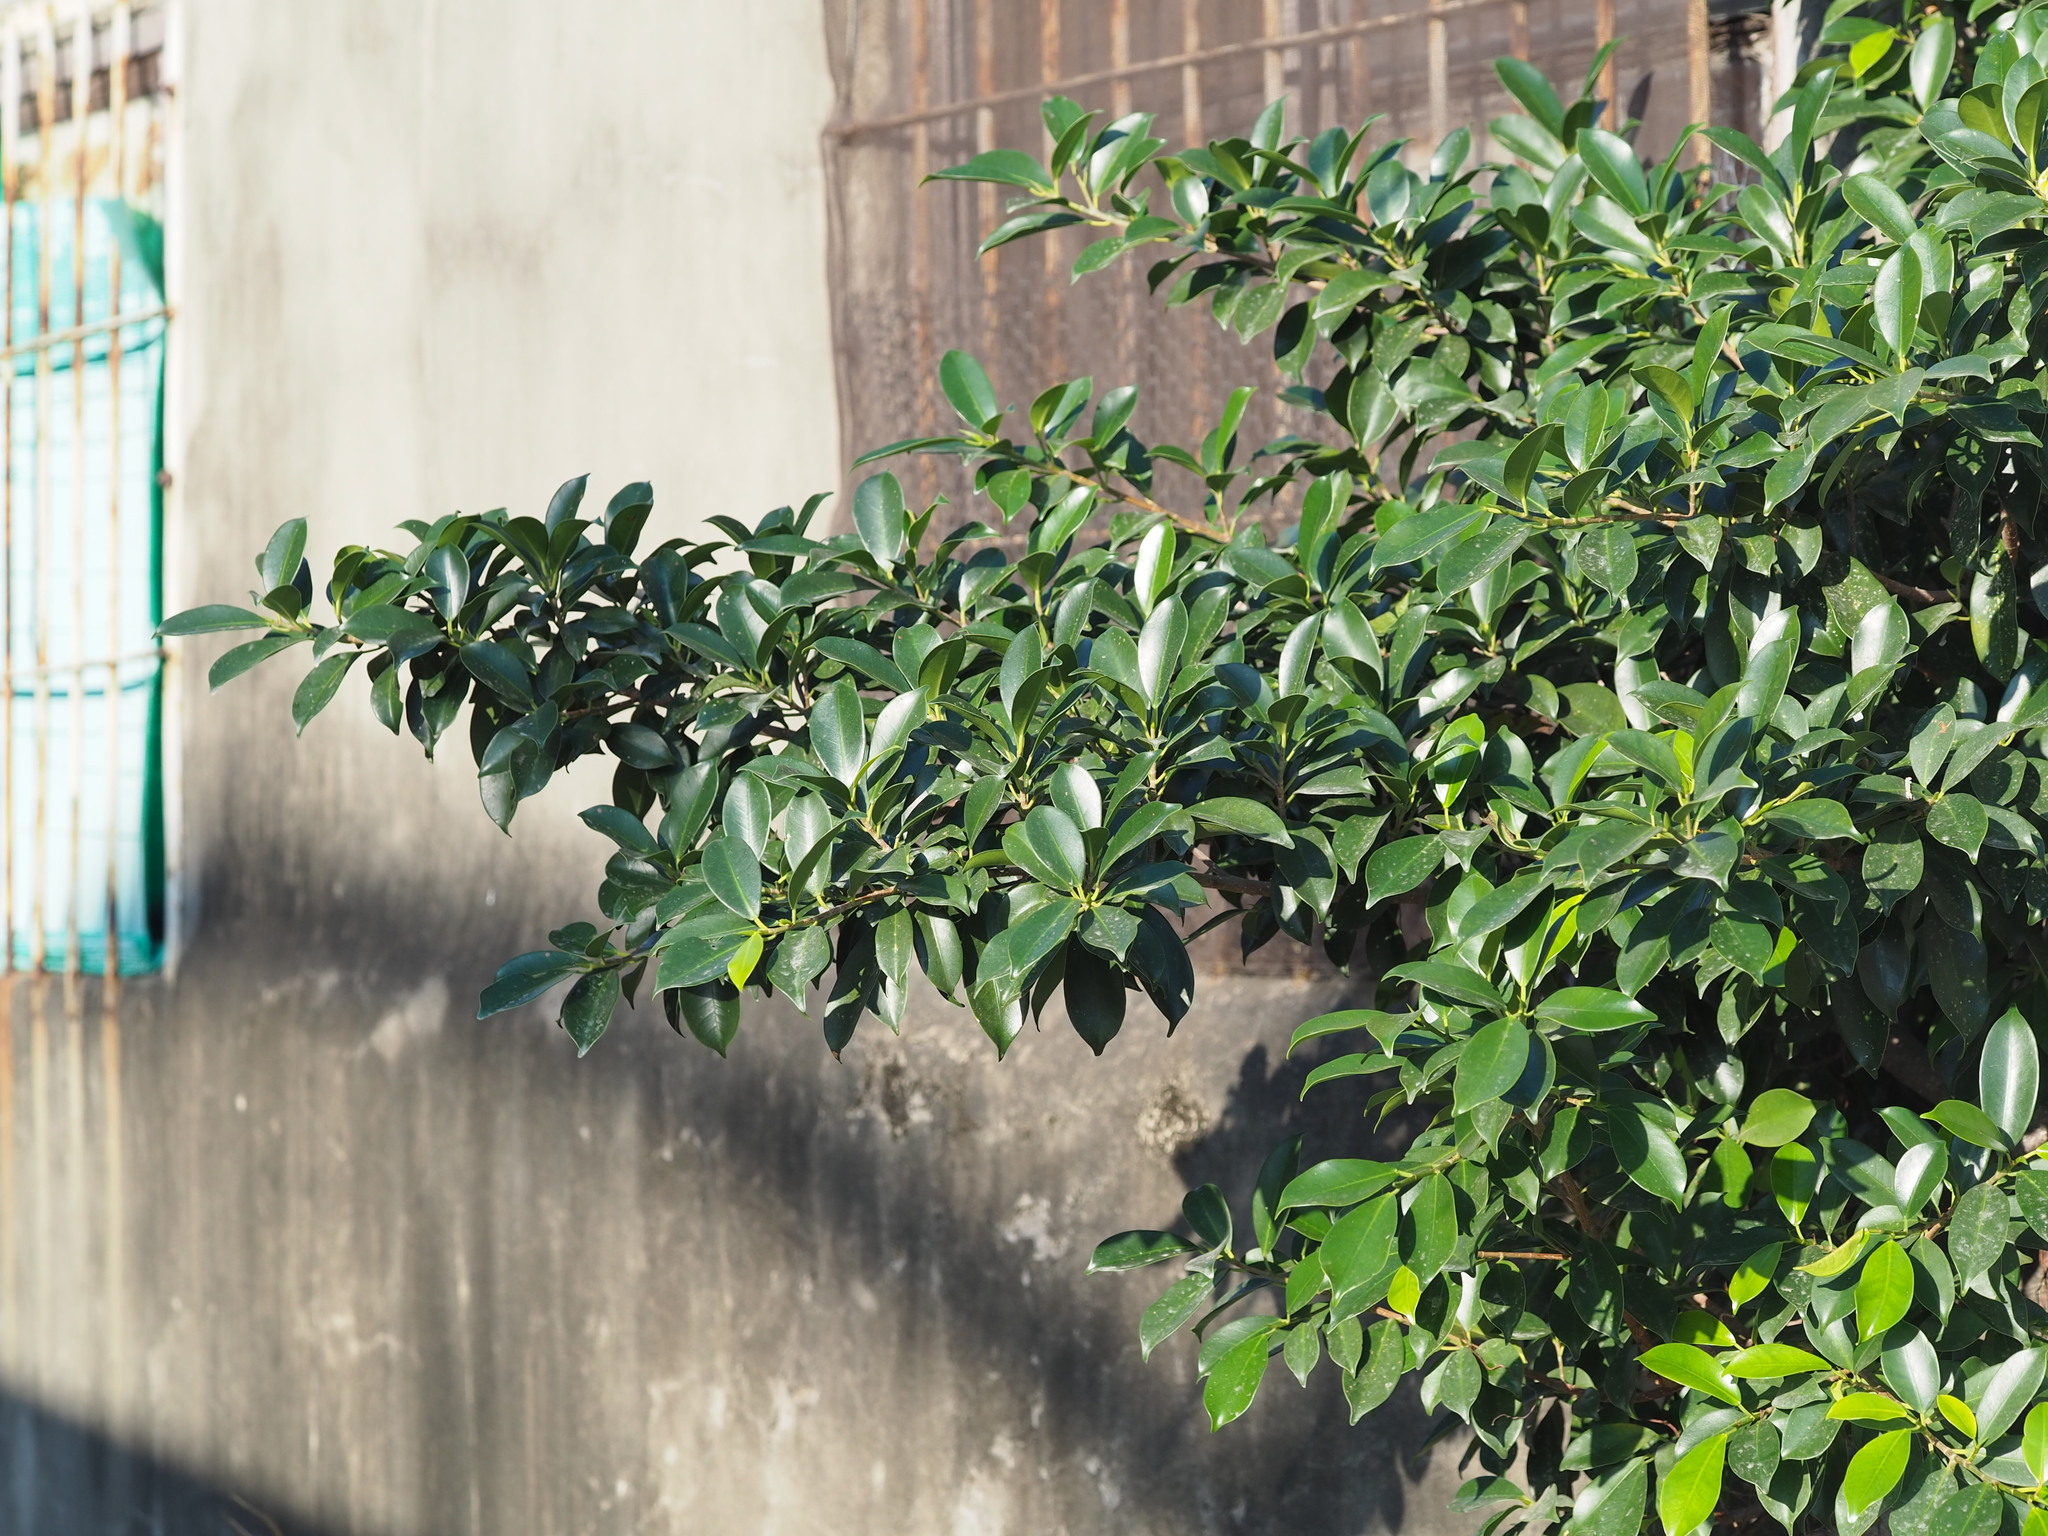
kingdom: Plantae
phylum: Tracheophyta
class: Magnoliopsida
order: Rosales
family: Moraceae
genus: Ficus
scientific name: Ficus microcarpa
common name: Chinese banyan
